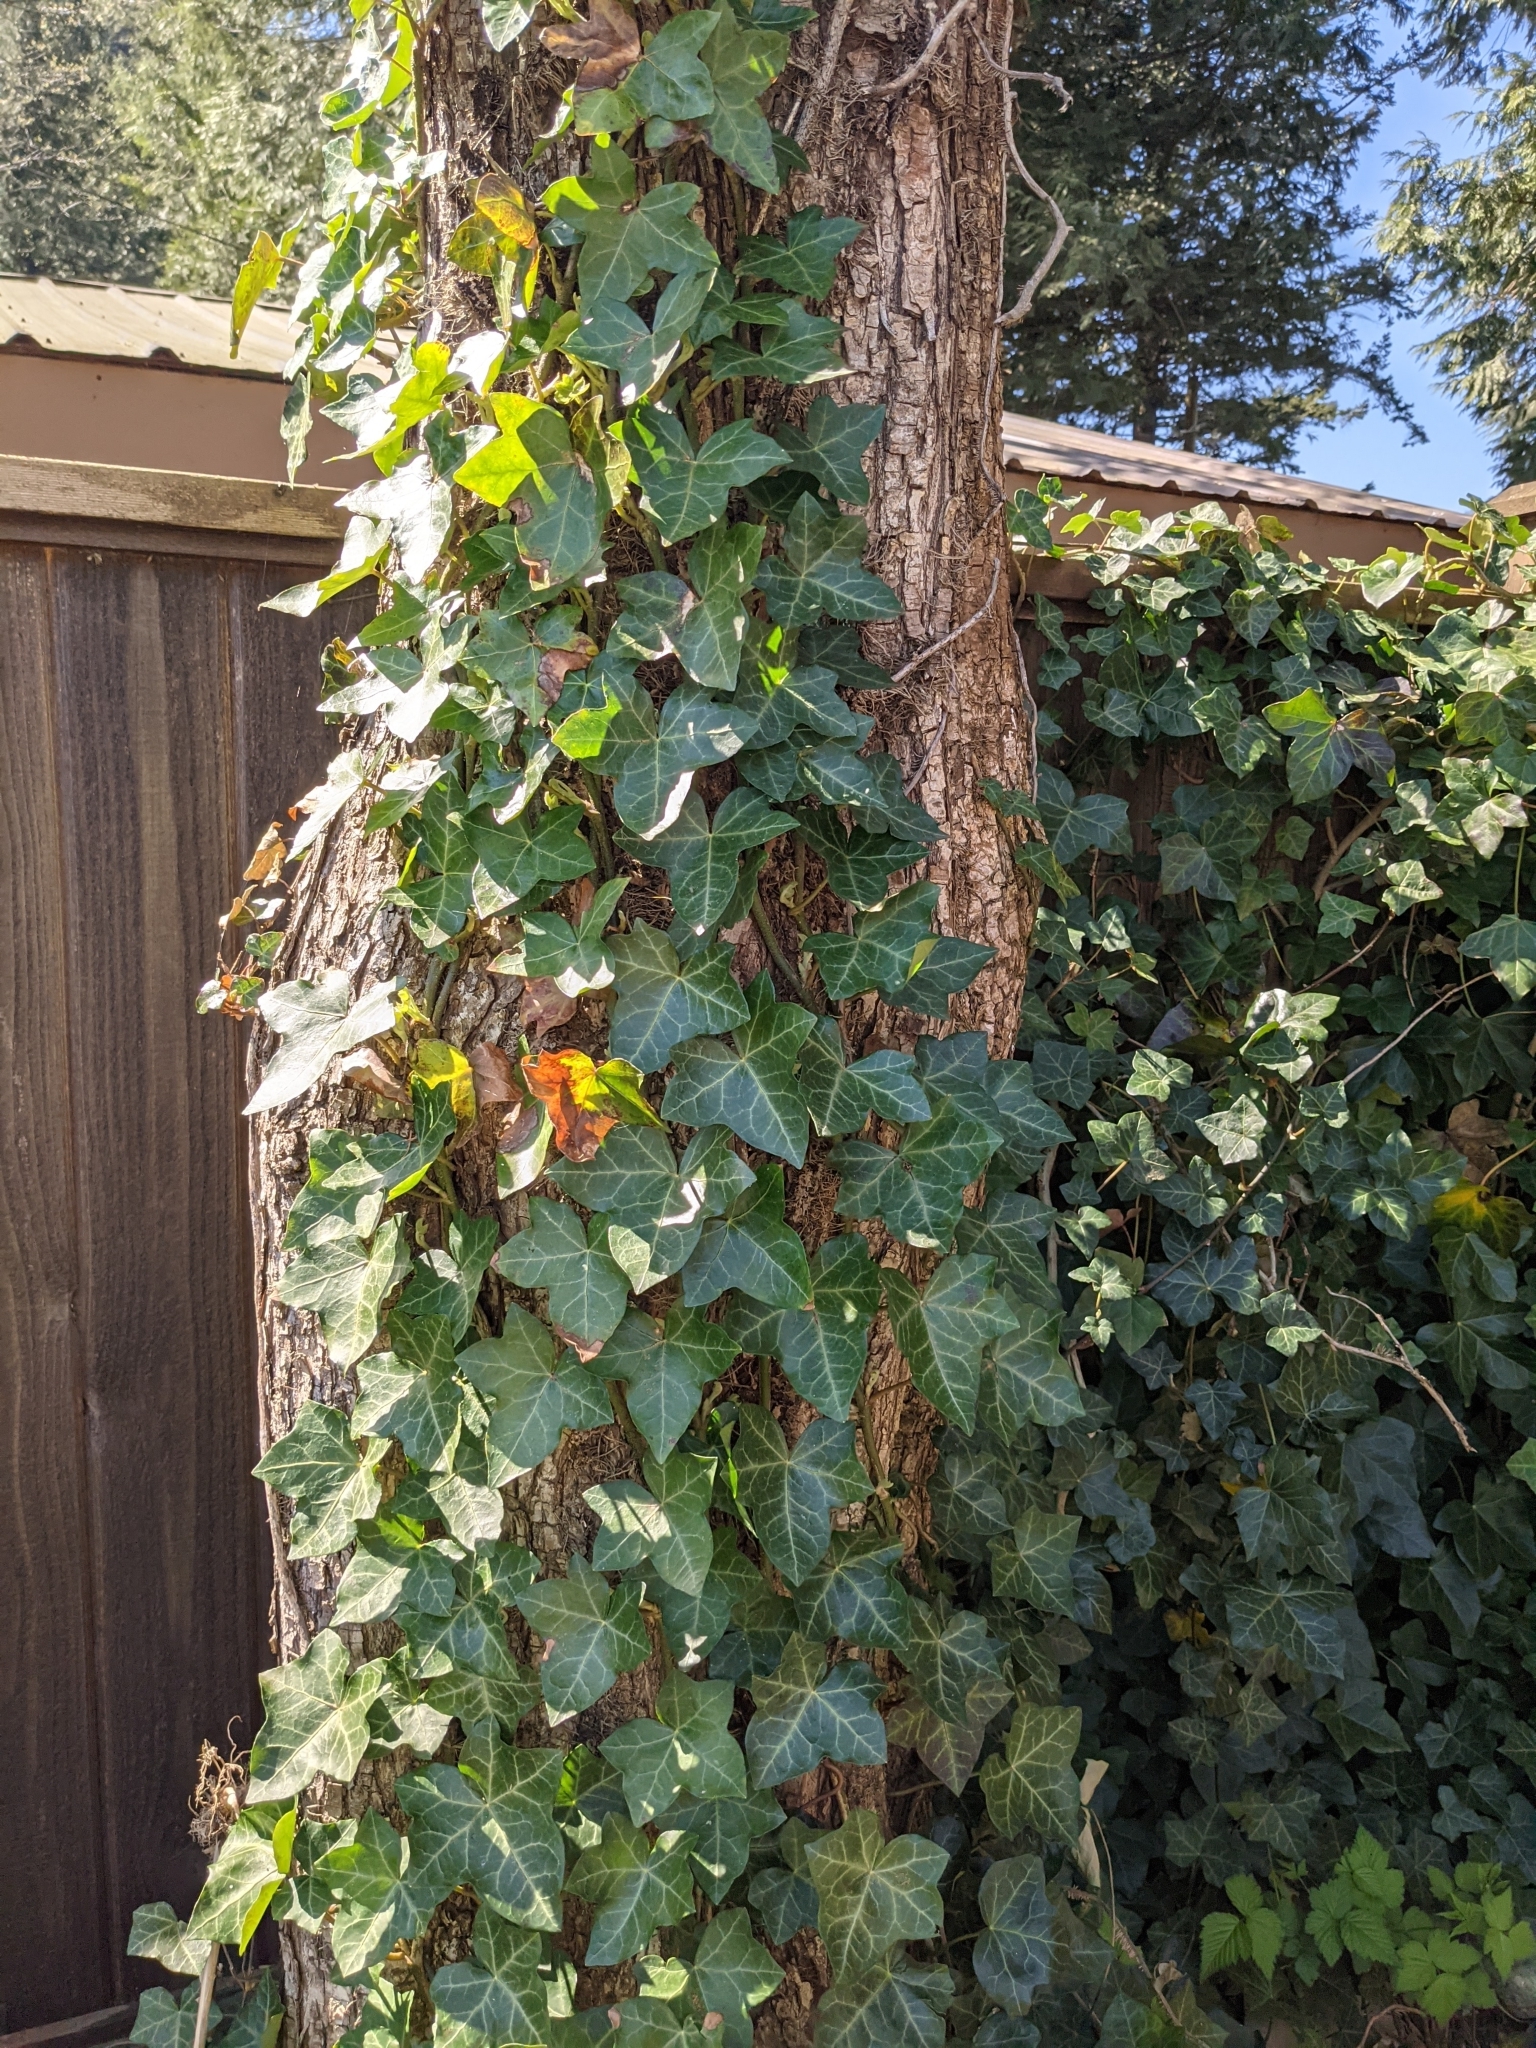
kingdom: Plantae
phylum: Tracheophyta
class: Magnoliopsida
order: Apiales
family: Araliaceae
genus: Hedera
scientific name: Hedera helix
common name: Ivy
